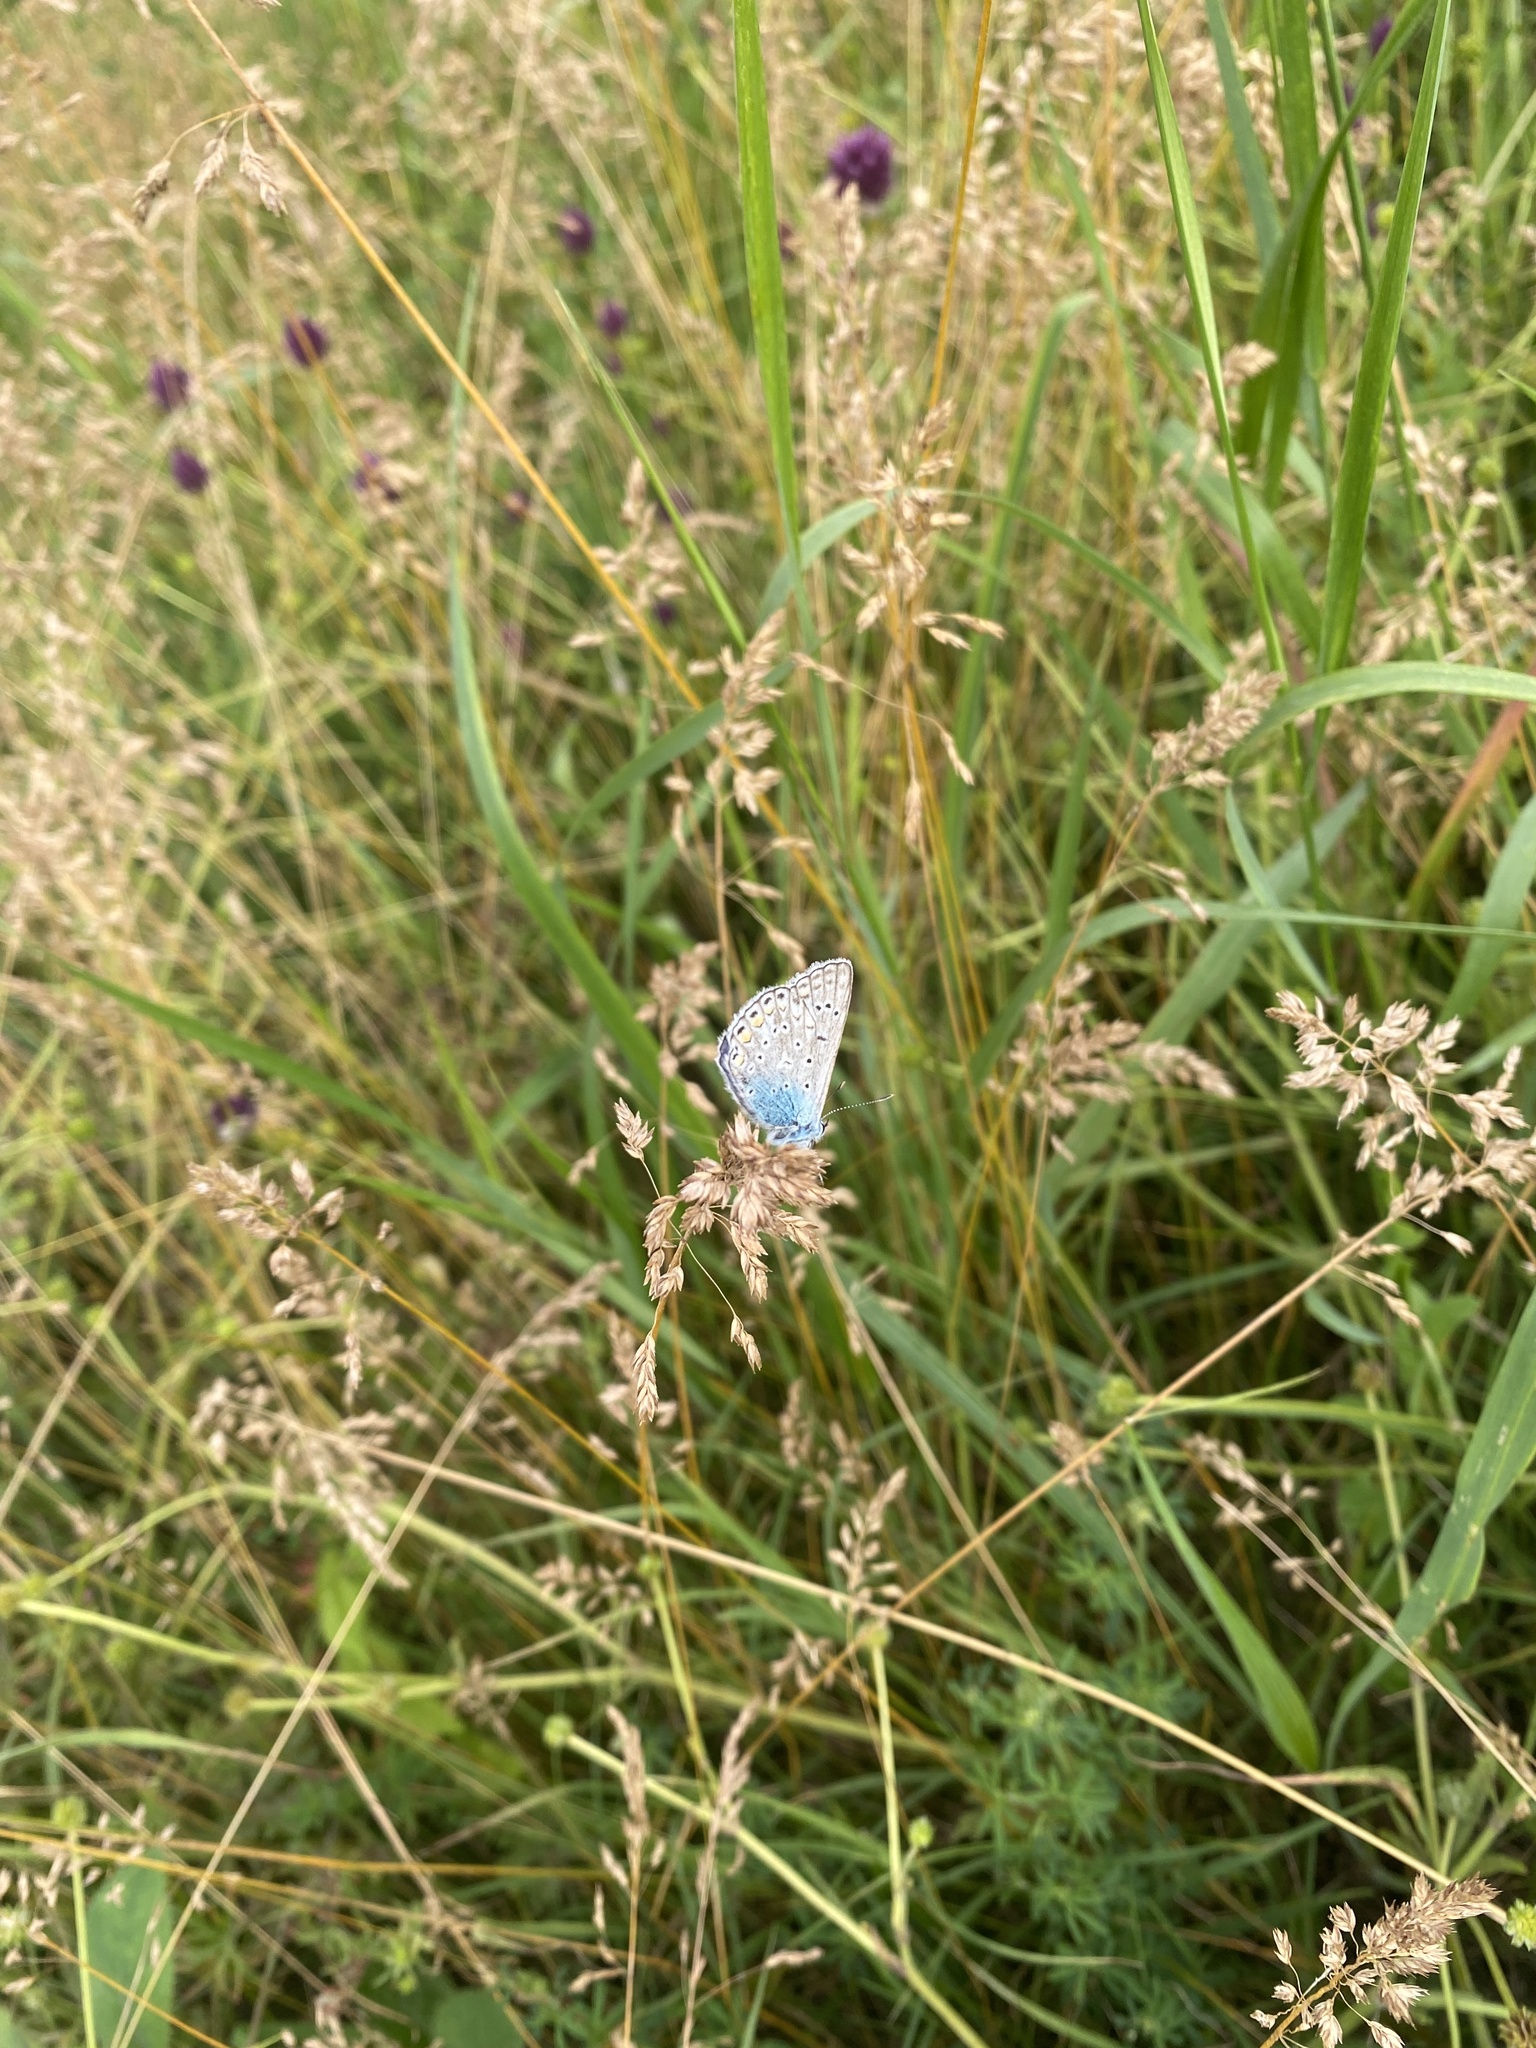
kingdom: Animalia
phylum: Arthropoda
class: Insecta
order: Lepidoptera
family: Lycaenidae
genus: Polyommatus
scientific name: Polyommatus icarus
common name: Common blue
